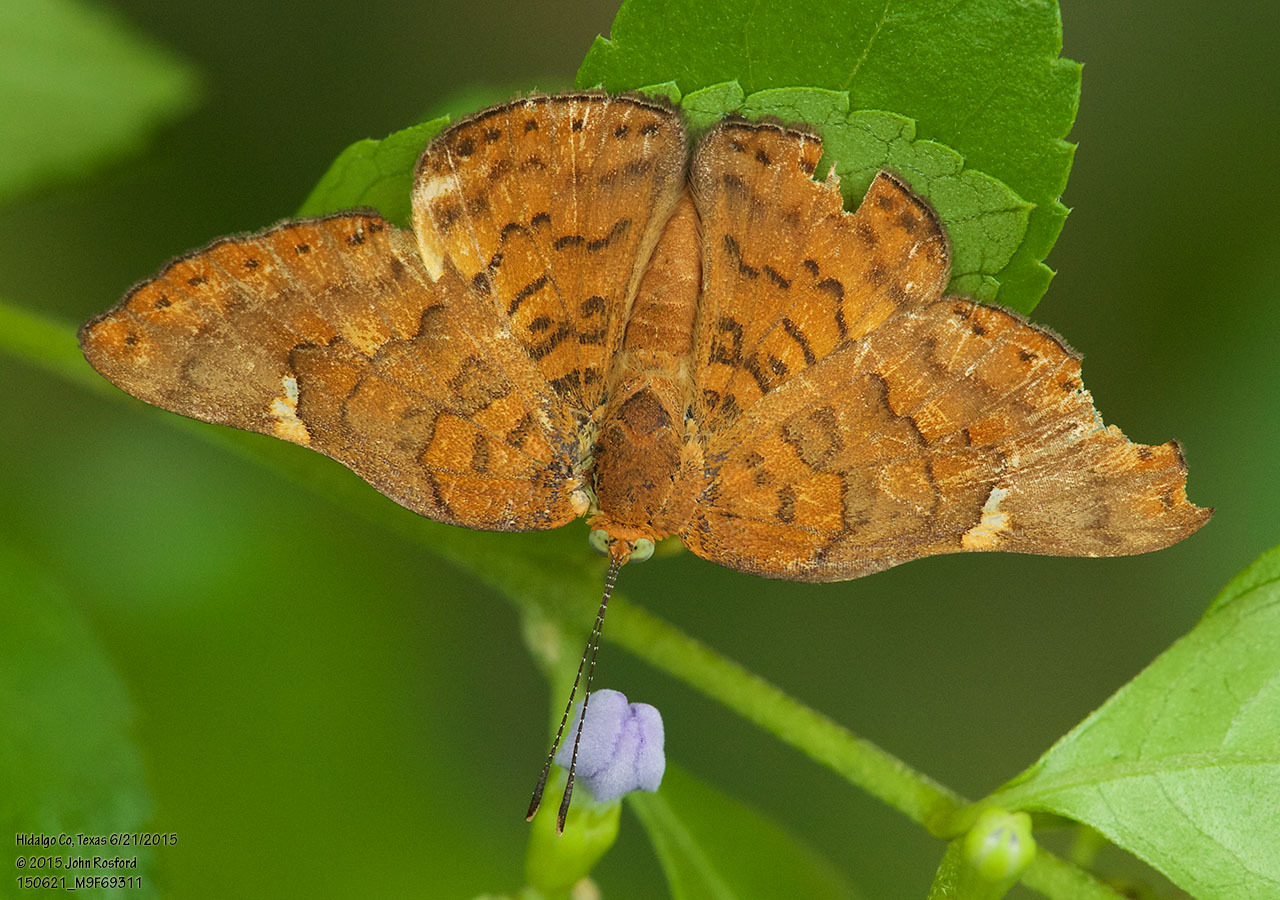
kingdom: Animalia
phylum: Arthropoda
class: Insecta
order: Lepidoptera
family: Riodinidae
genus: Curvie
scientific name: Curvie emesia
